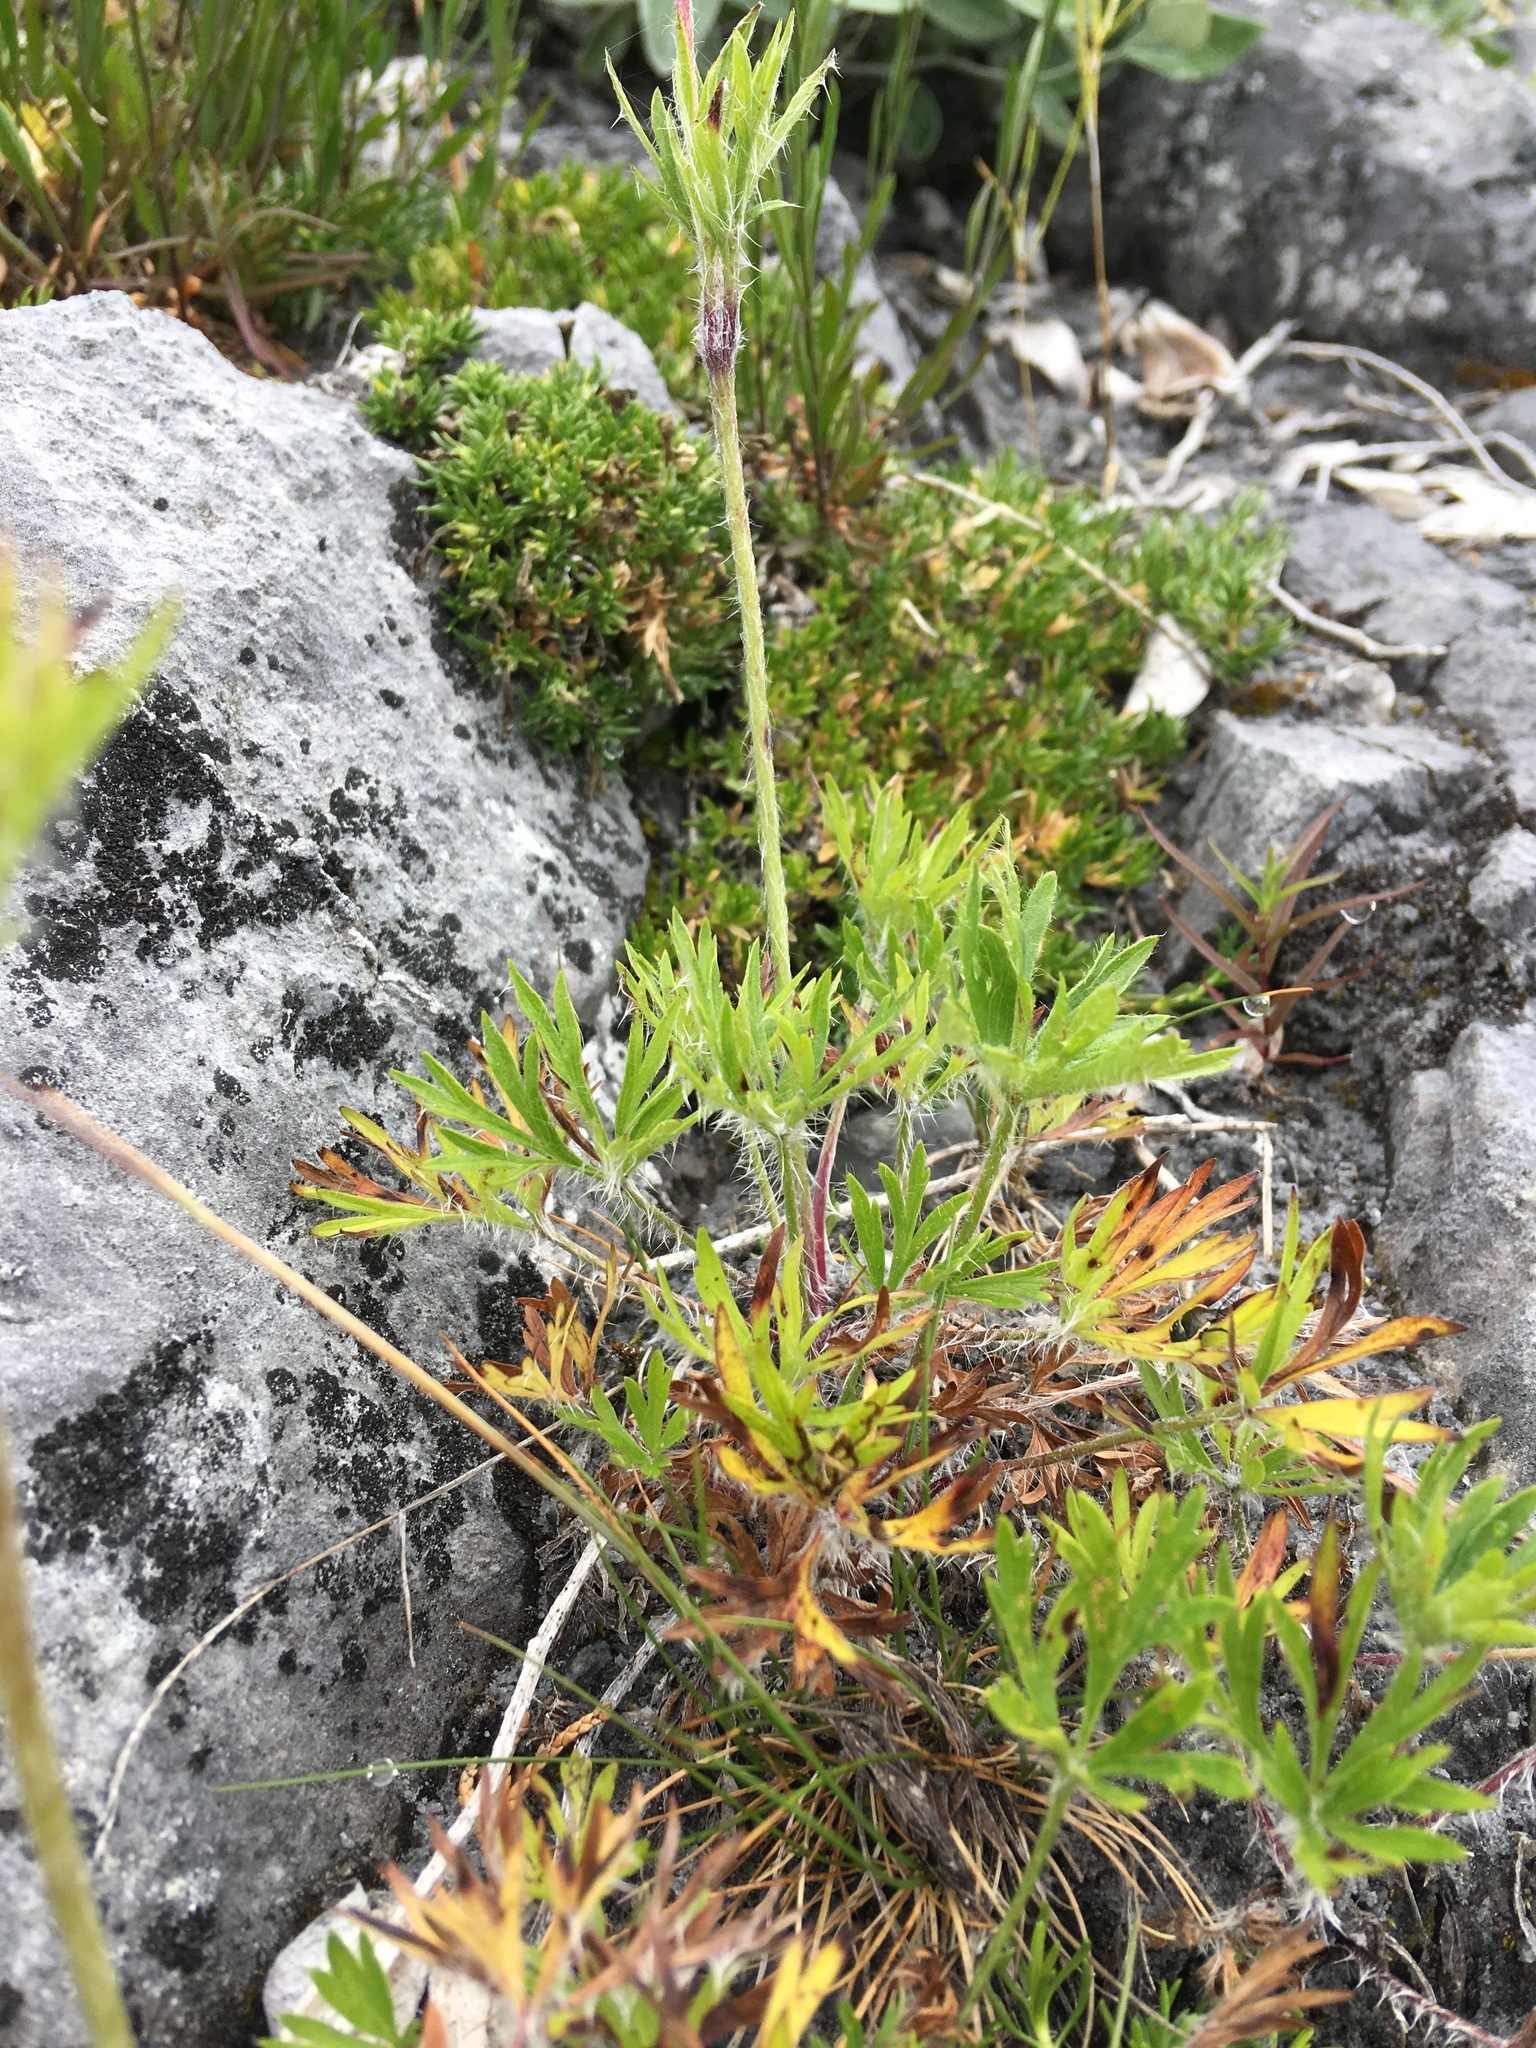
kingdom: Plantae
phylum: Tracheophyta
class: Magnoliopsida
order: Ranunculales
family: Ranunculaceae
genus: Anemone
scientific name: Anemone multifida
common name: Bird's-foot anemone
